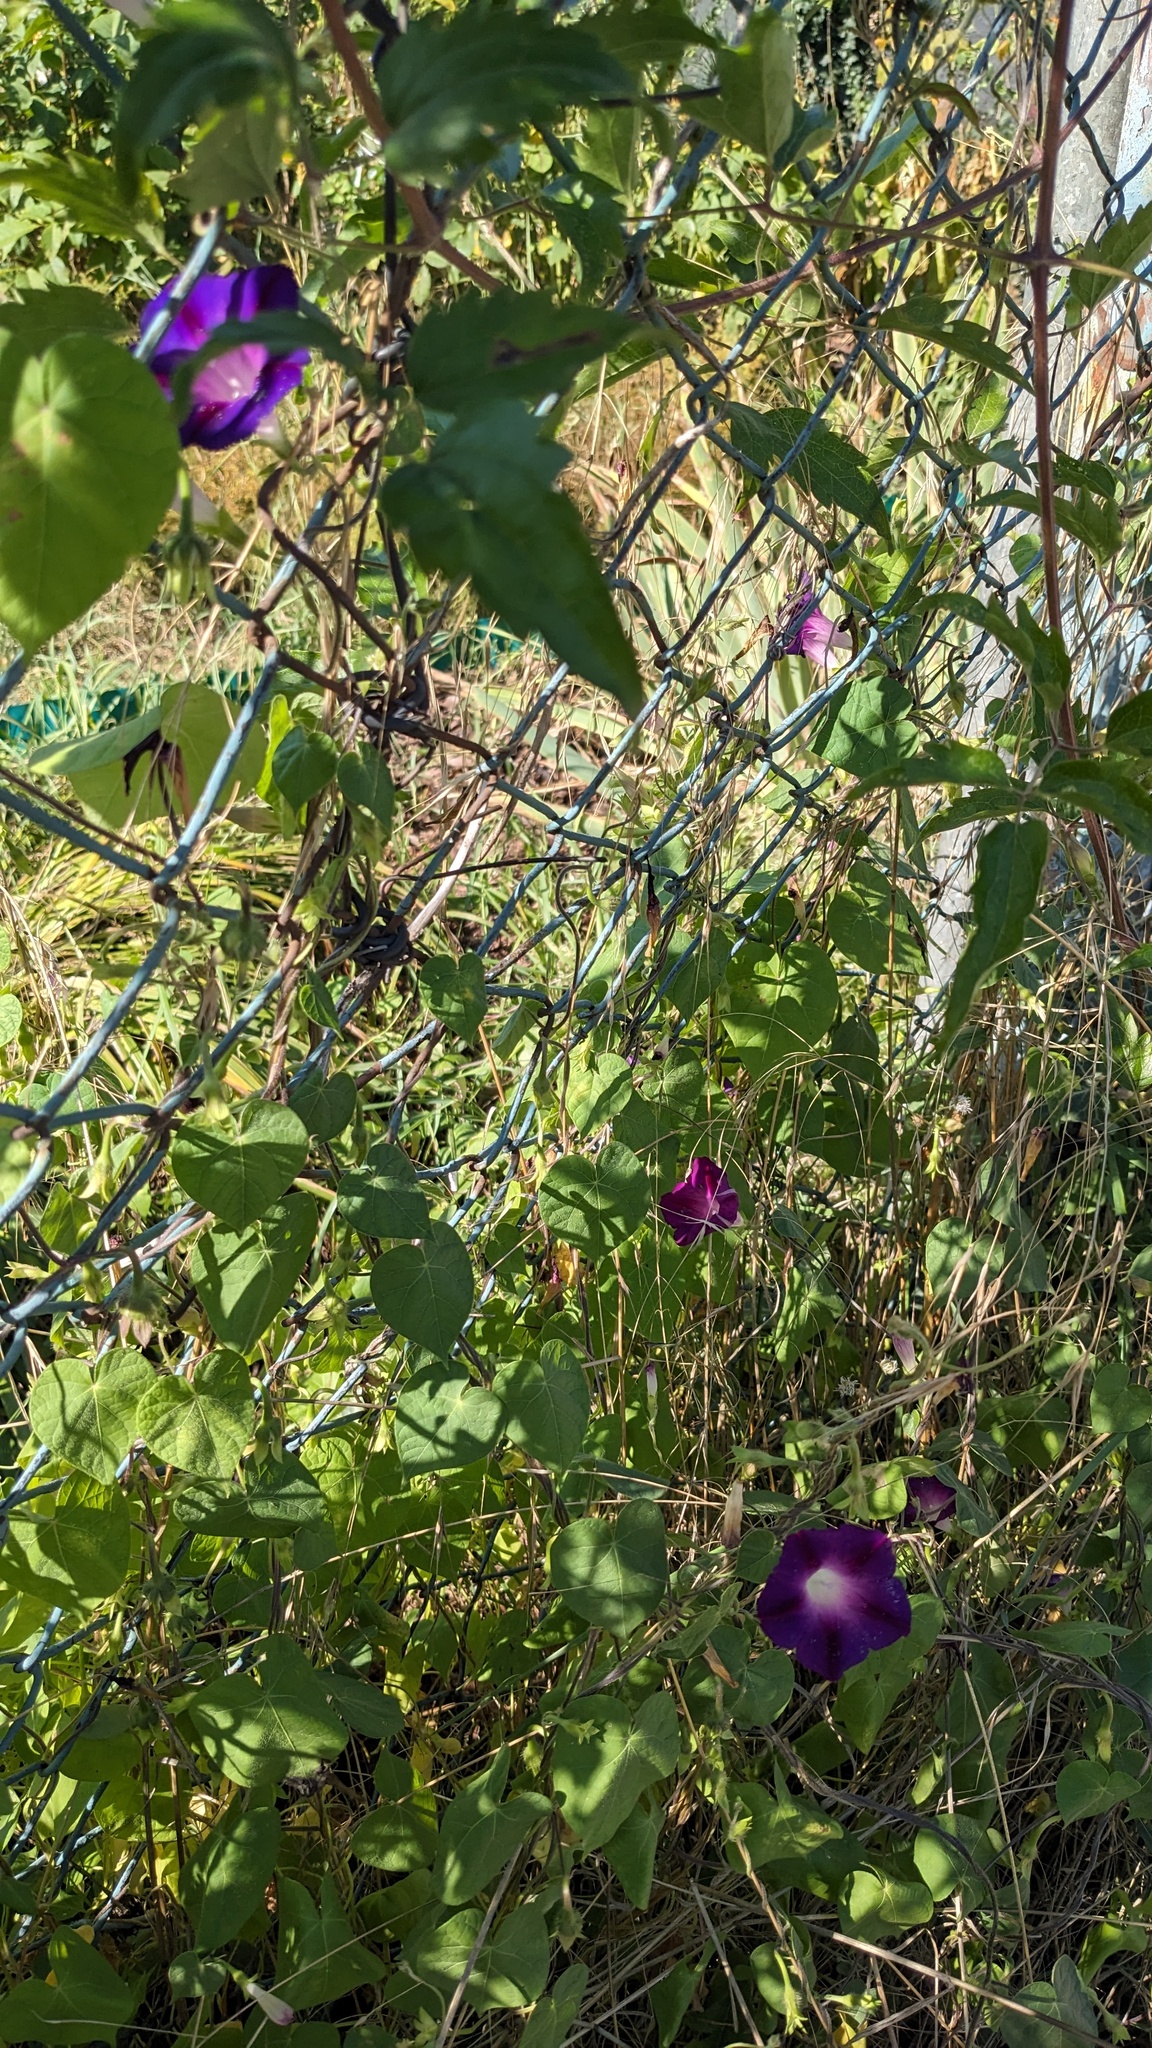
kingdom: Plantae
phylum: Tracheophyta
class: Magnoliopsida
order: Solanales
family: Convolvulaceae
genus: Ipomoea
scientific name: Ipomoea purpurea
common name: Common morning-glory
